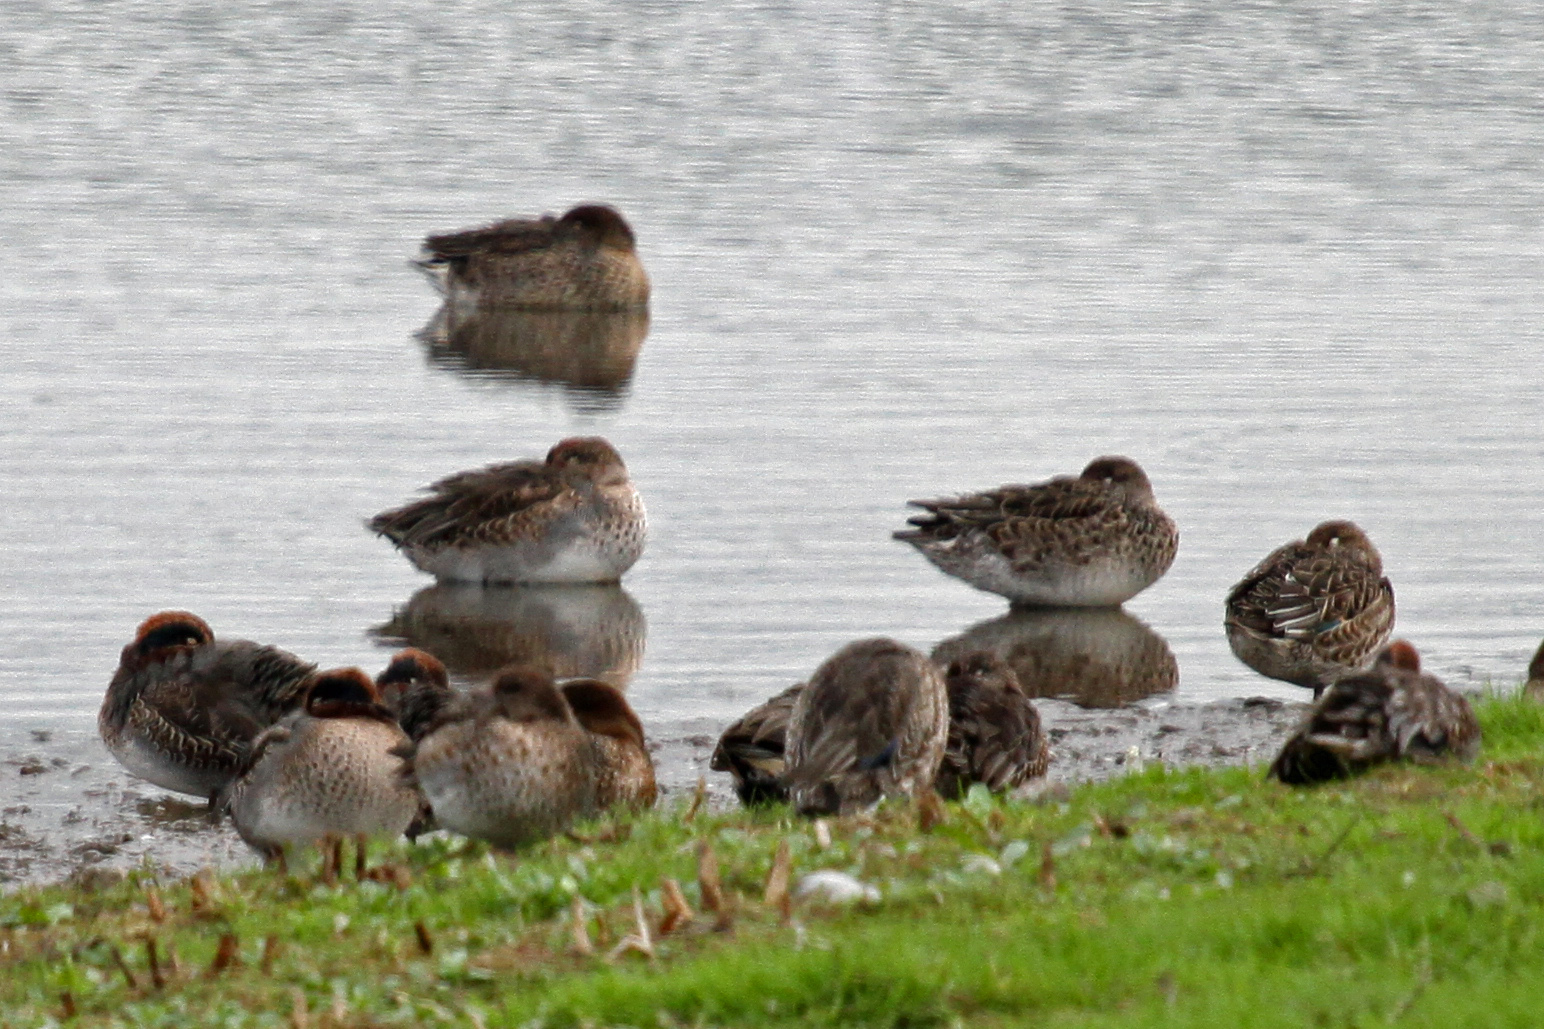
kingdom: Animalia
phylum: Chordata
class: Aves
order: Anseriformes
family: Anatidae
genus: Anas
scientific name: Anas crecca
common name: Eurasian teal
